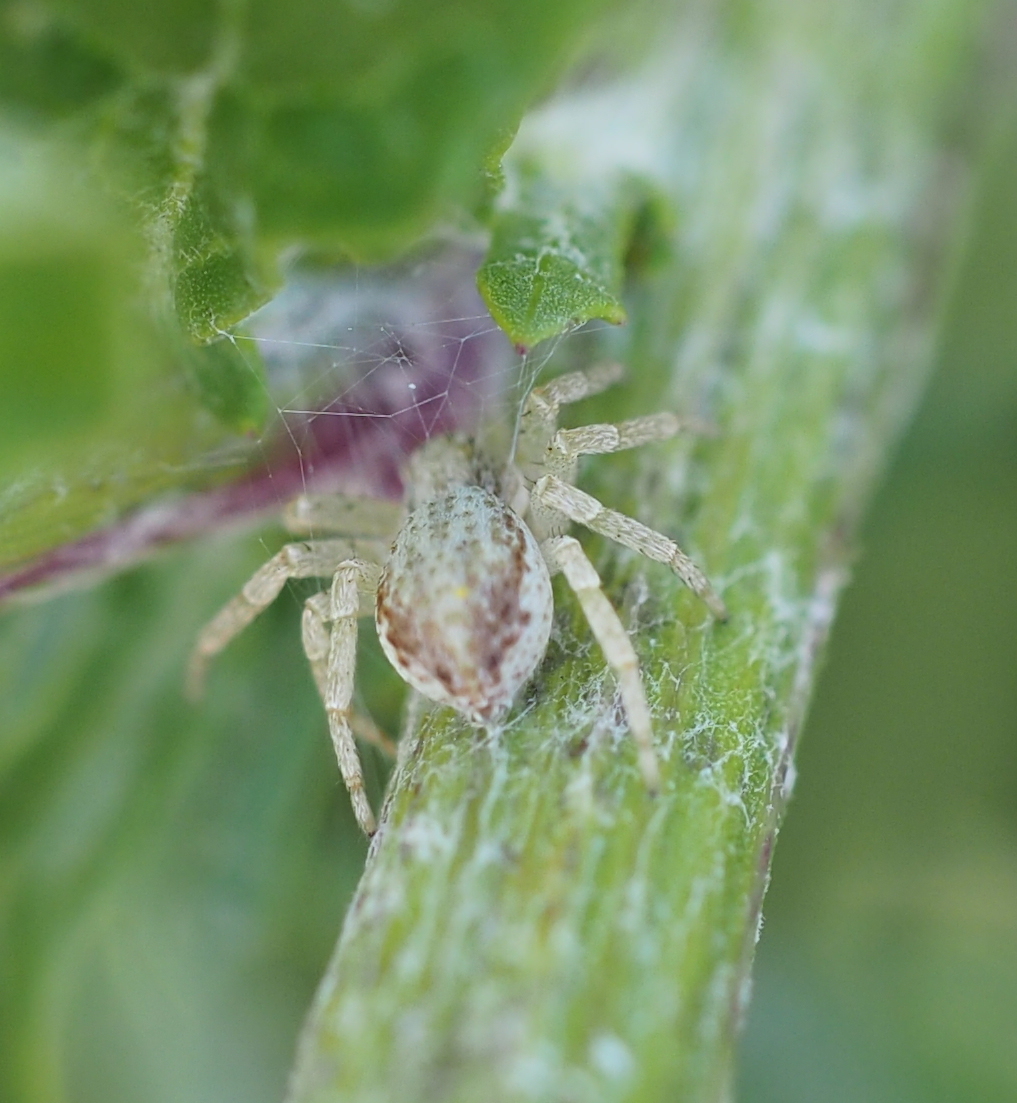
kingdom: Animalia
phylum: Arthropoda
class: Arachnida
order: Araneae
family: Philodromidae
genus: Philodromus
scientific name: Philodromus dispar
